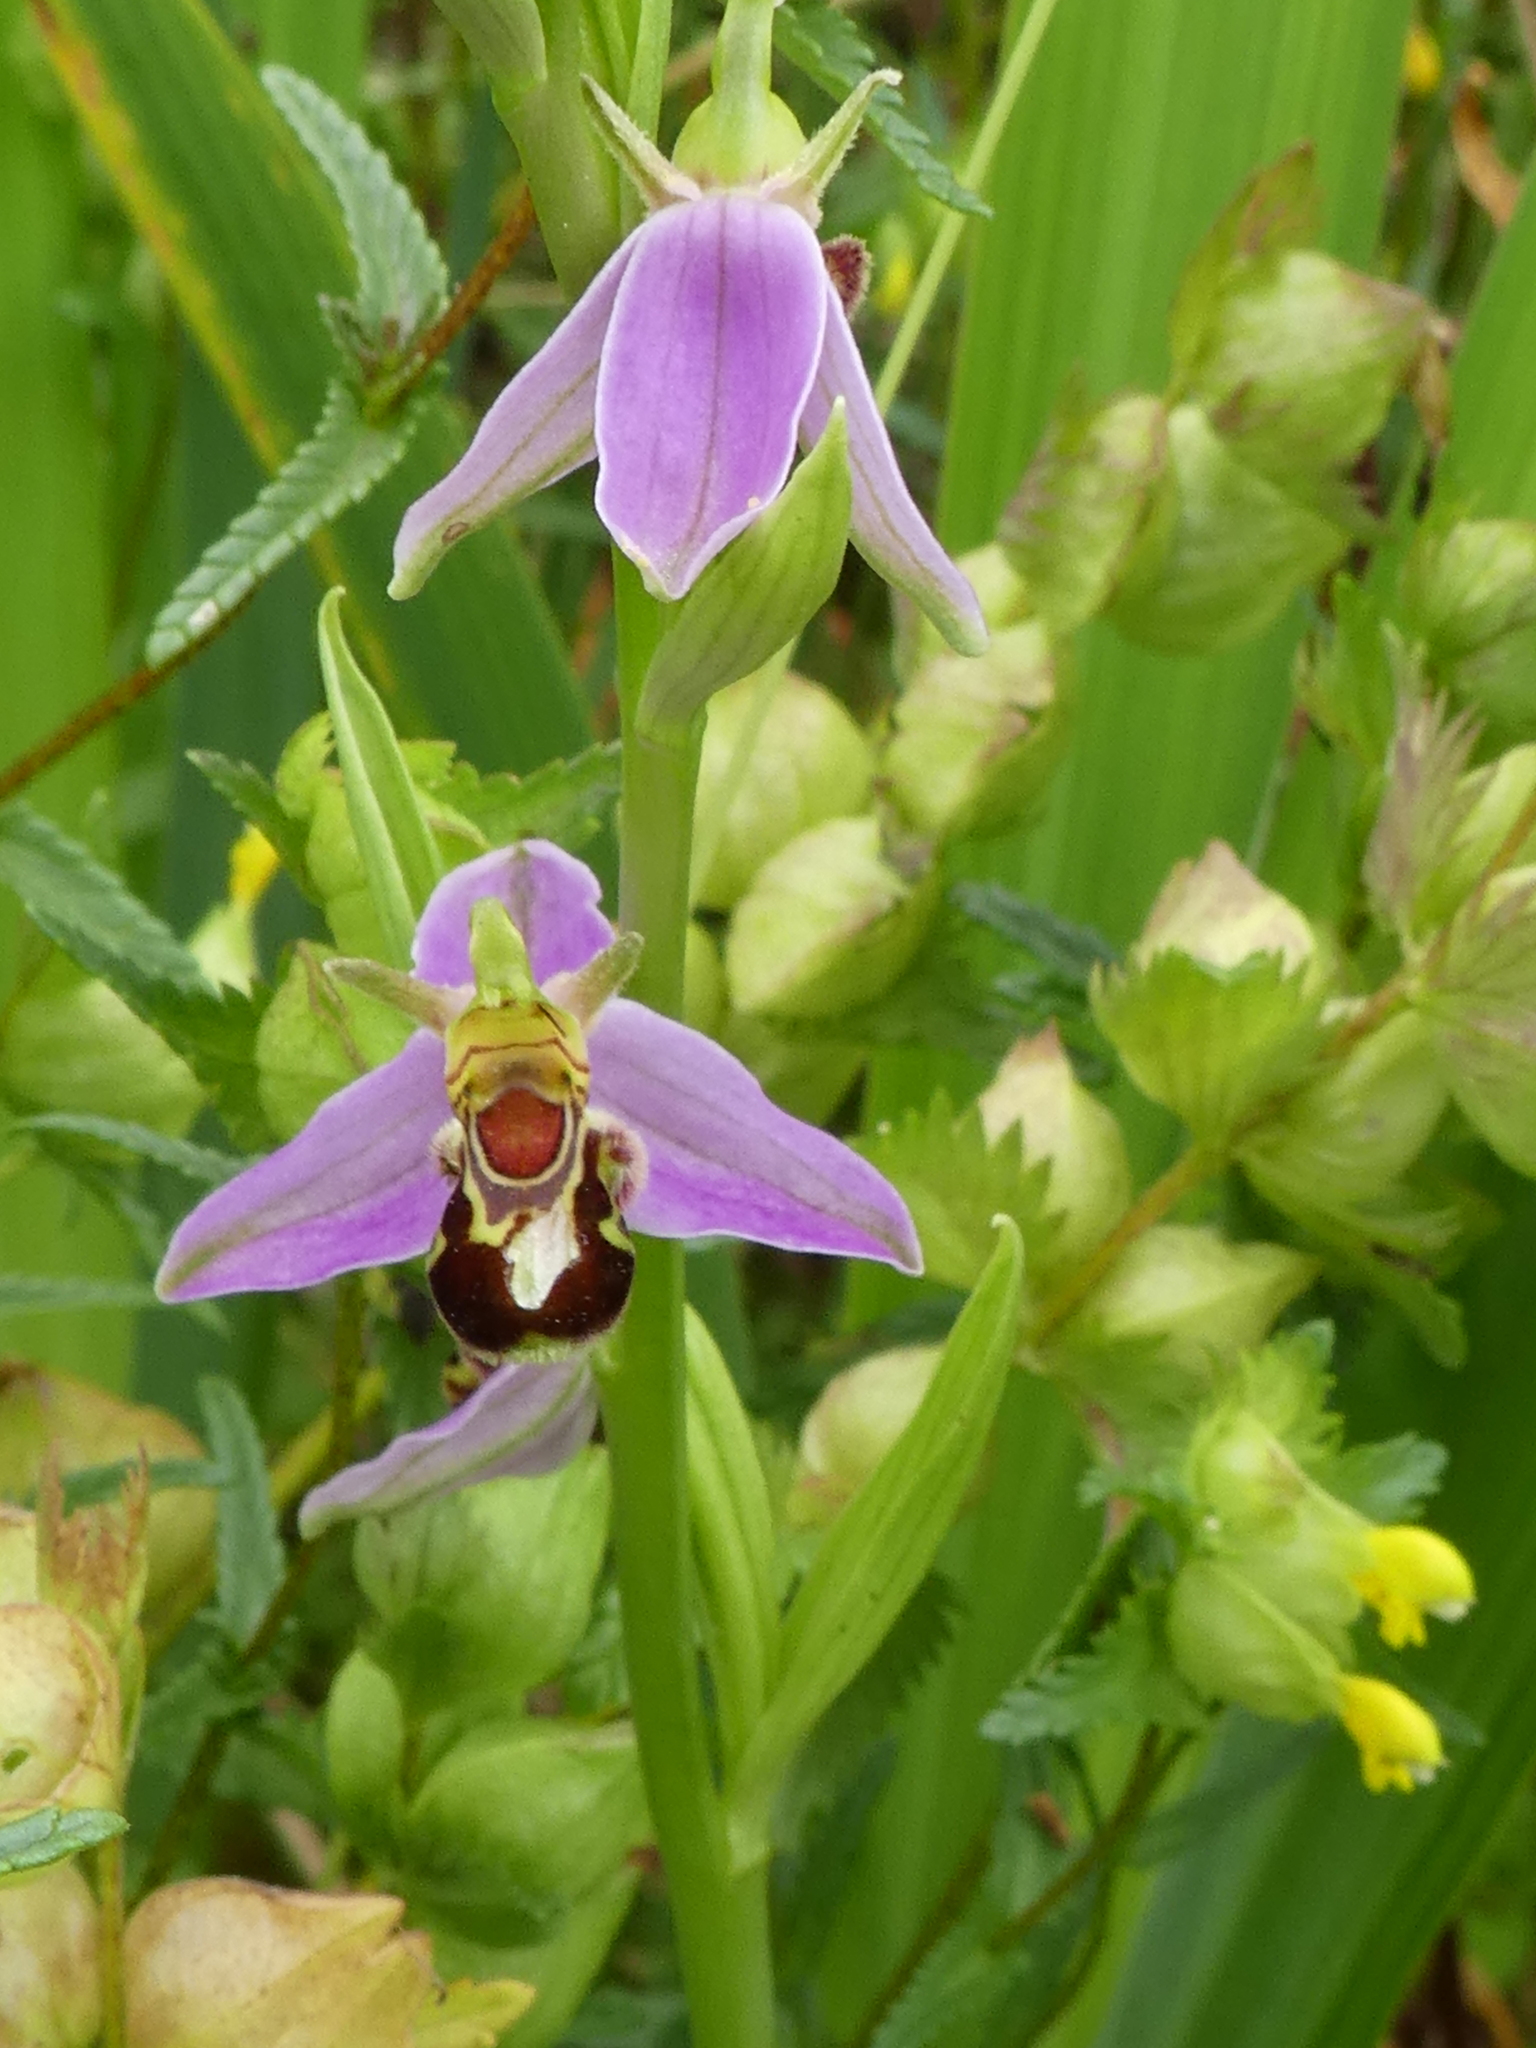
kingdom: Plantae
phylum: Tracheophyta
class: Liliopsida
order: Asparagales
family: Orchidaceae
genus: Ophrys
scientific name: Ophrys apifera
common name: Bee orchid
